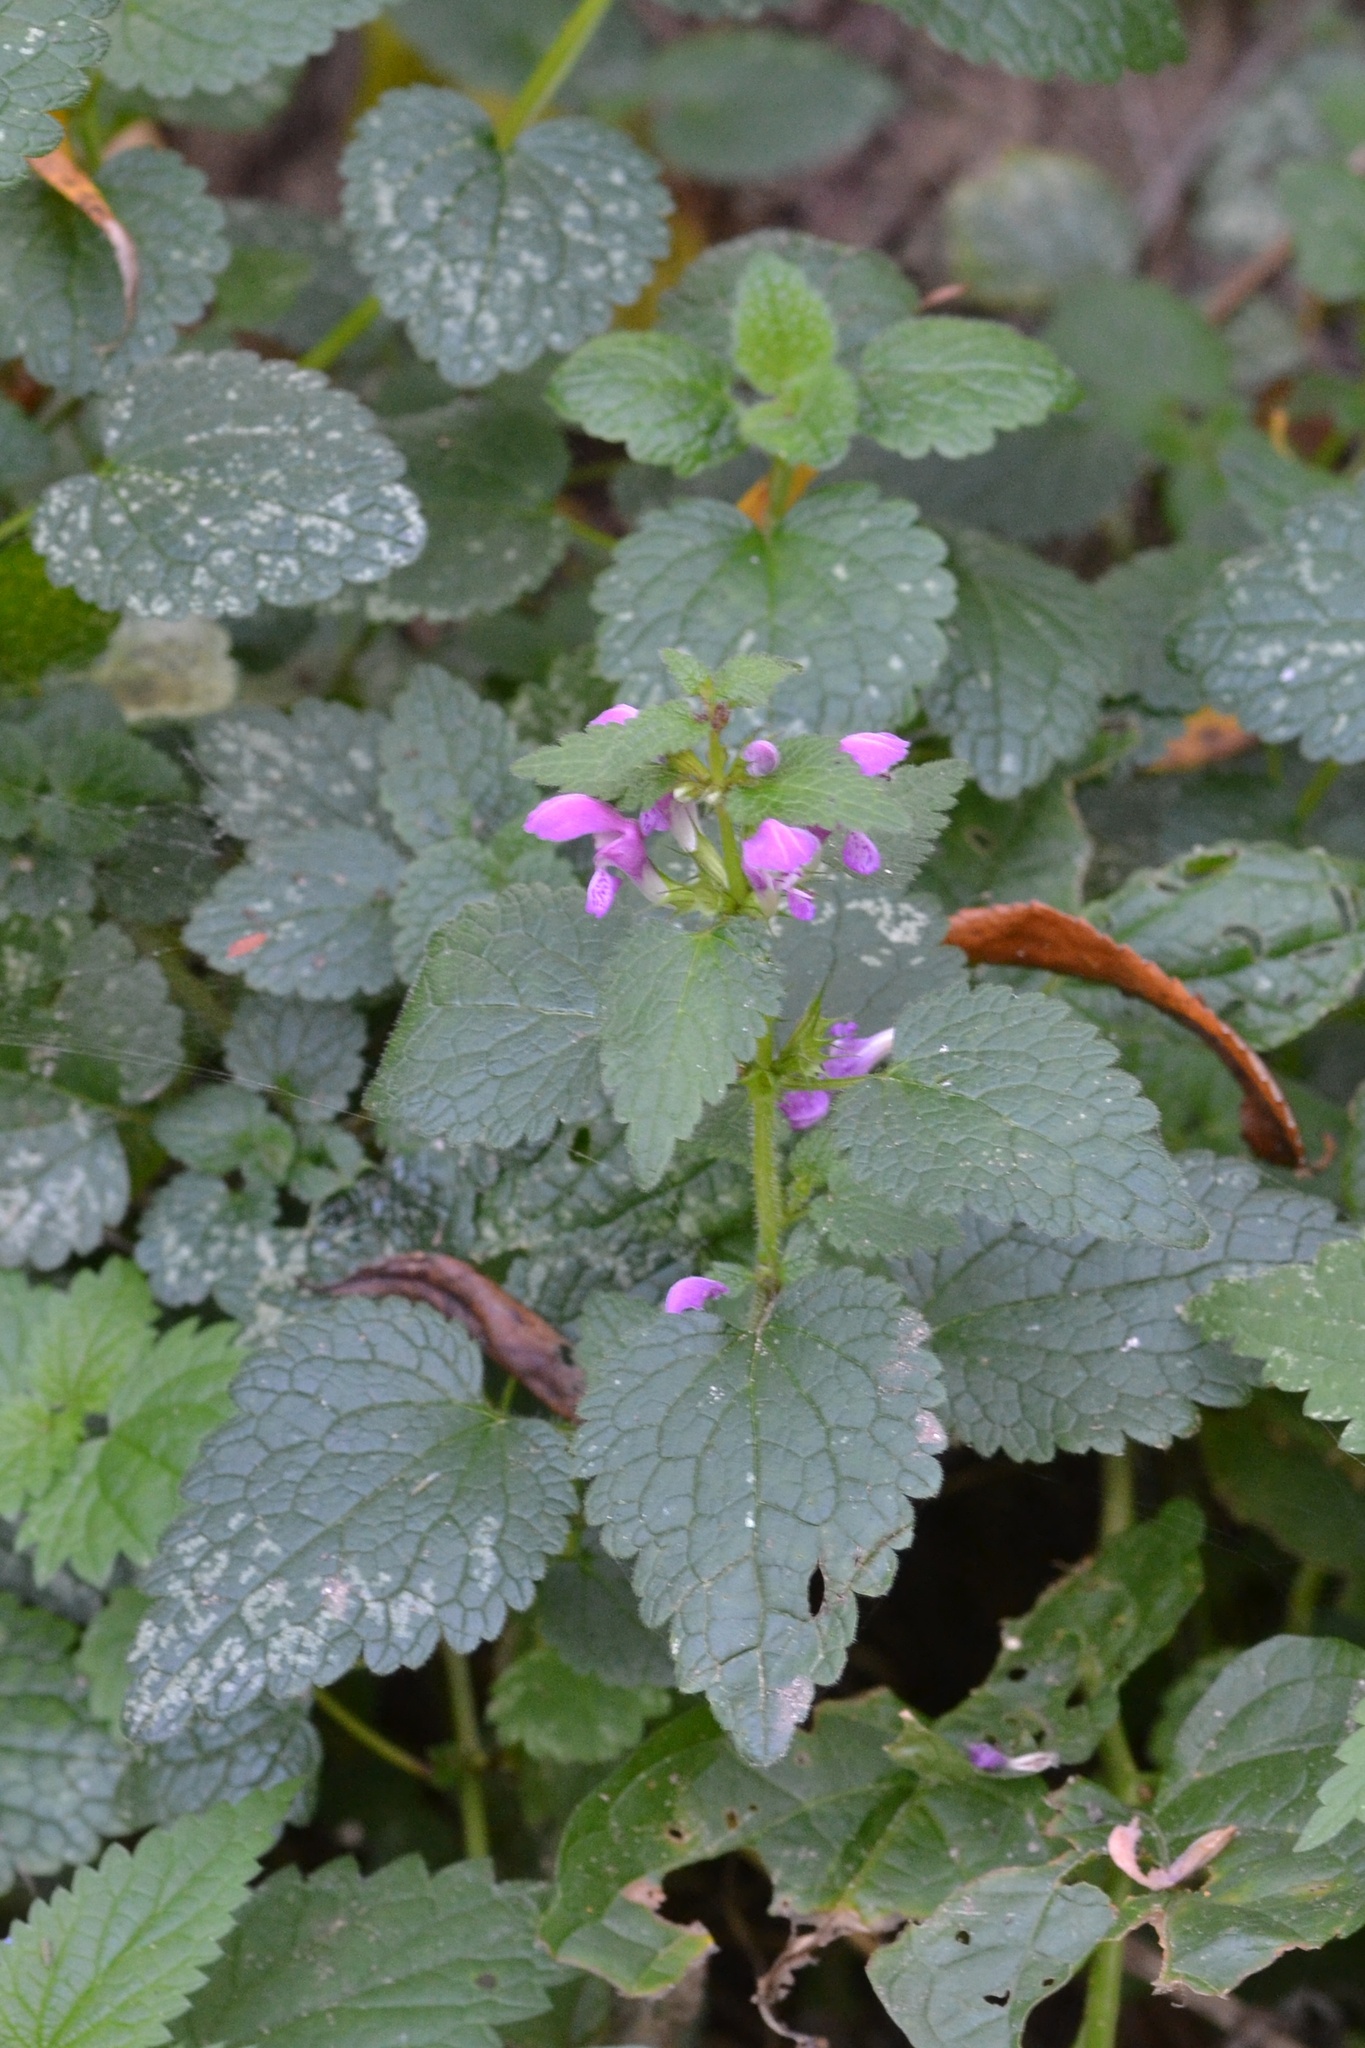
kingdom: Plantae
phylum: Tracheophyta
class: Magnoliopsida
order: Lamiales
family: Lamiaceae
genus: Lamium
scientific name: Lamium maculatum
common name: Spotted dead-nettle
